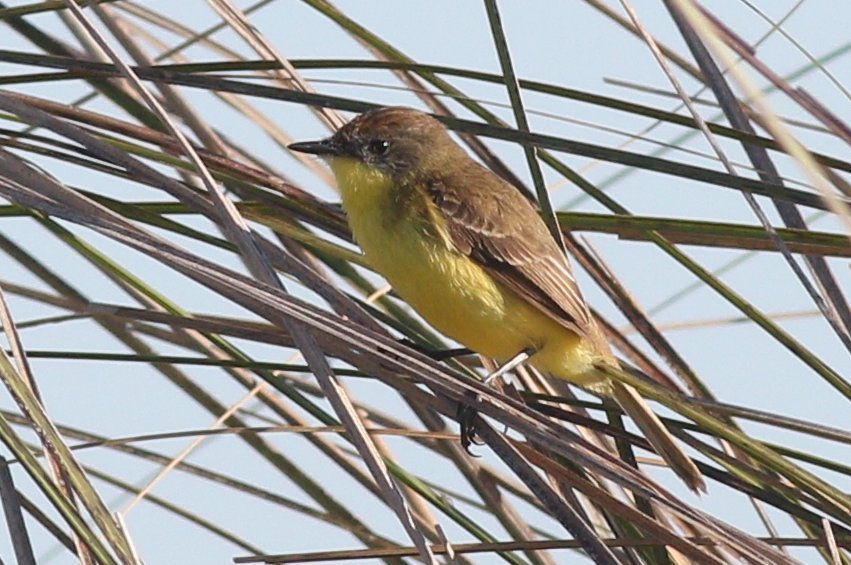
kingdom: Animalia
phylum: Chordata
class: Aves
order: Passeriformes
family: Tyrannidae
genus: Pseudocolopteryx
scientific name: Pseudocolopteryx flaviventris
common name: Warbling doradito
